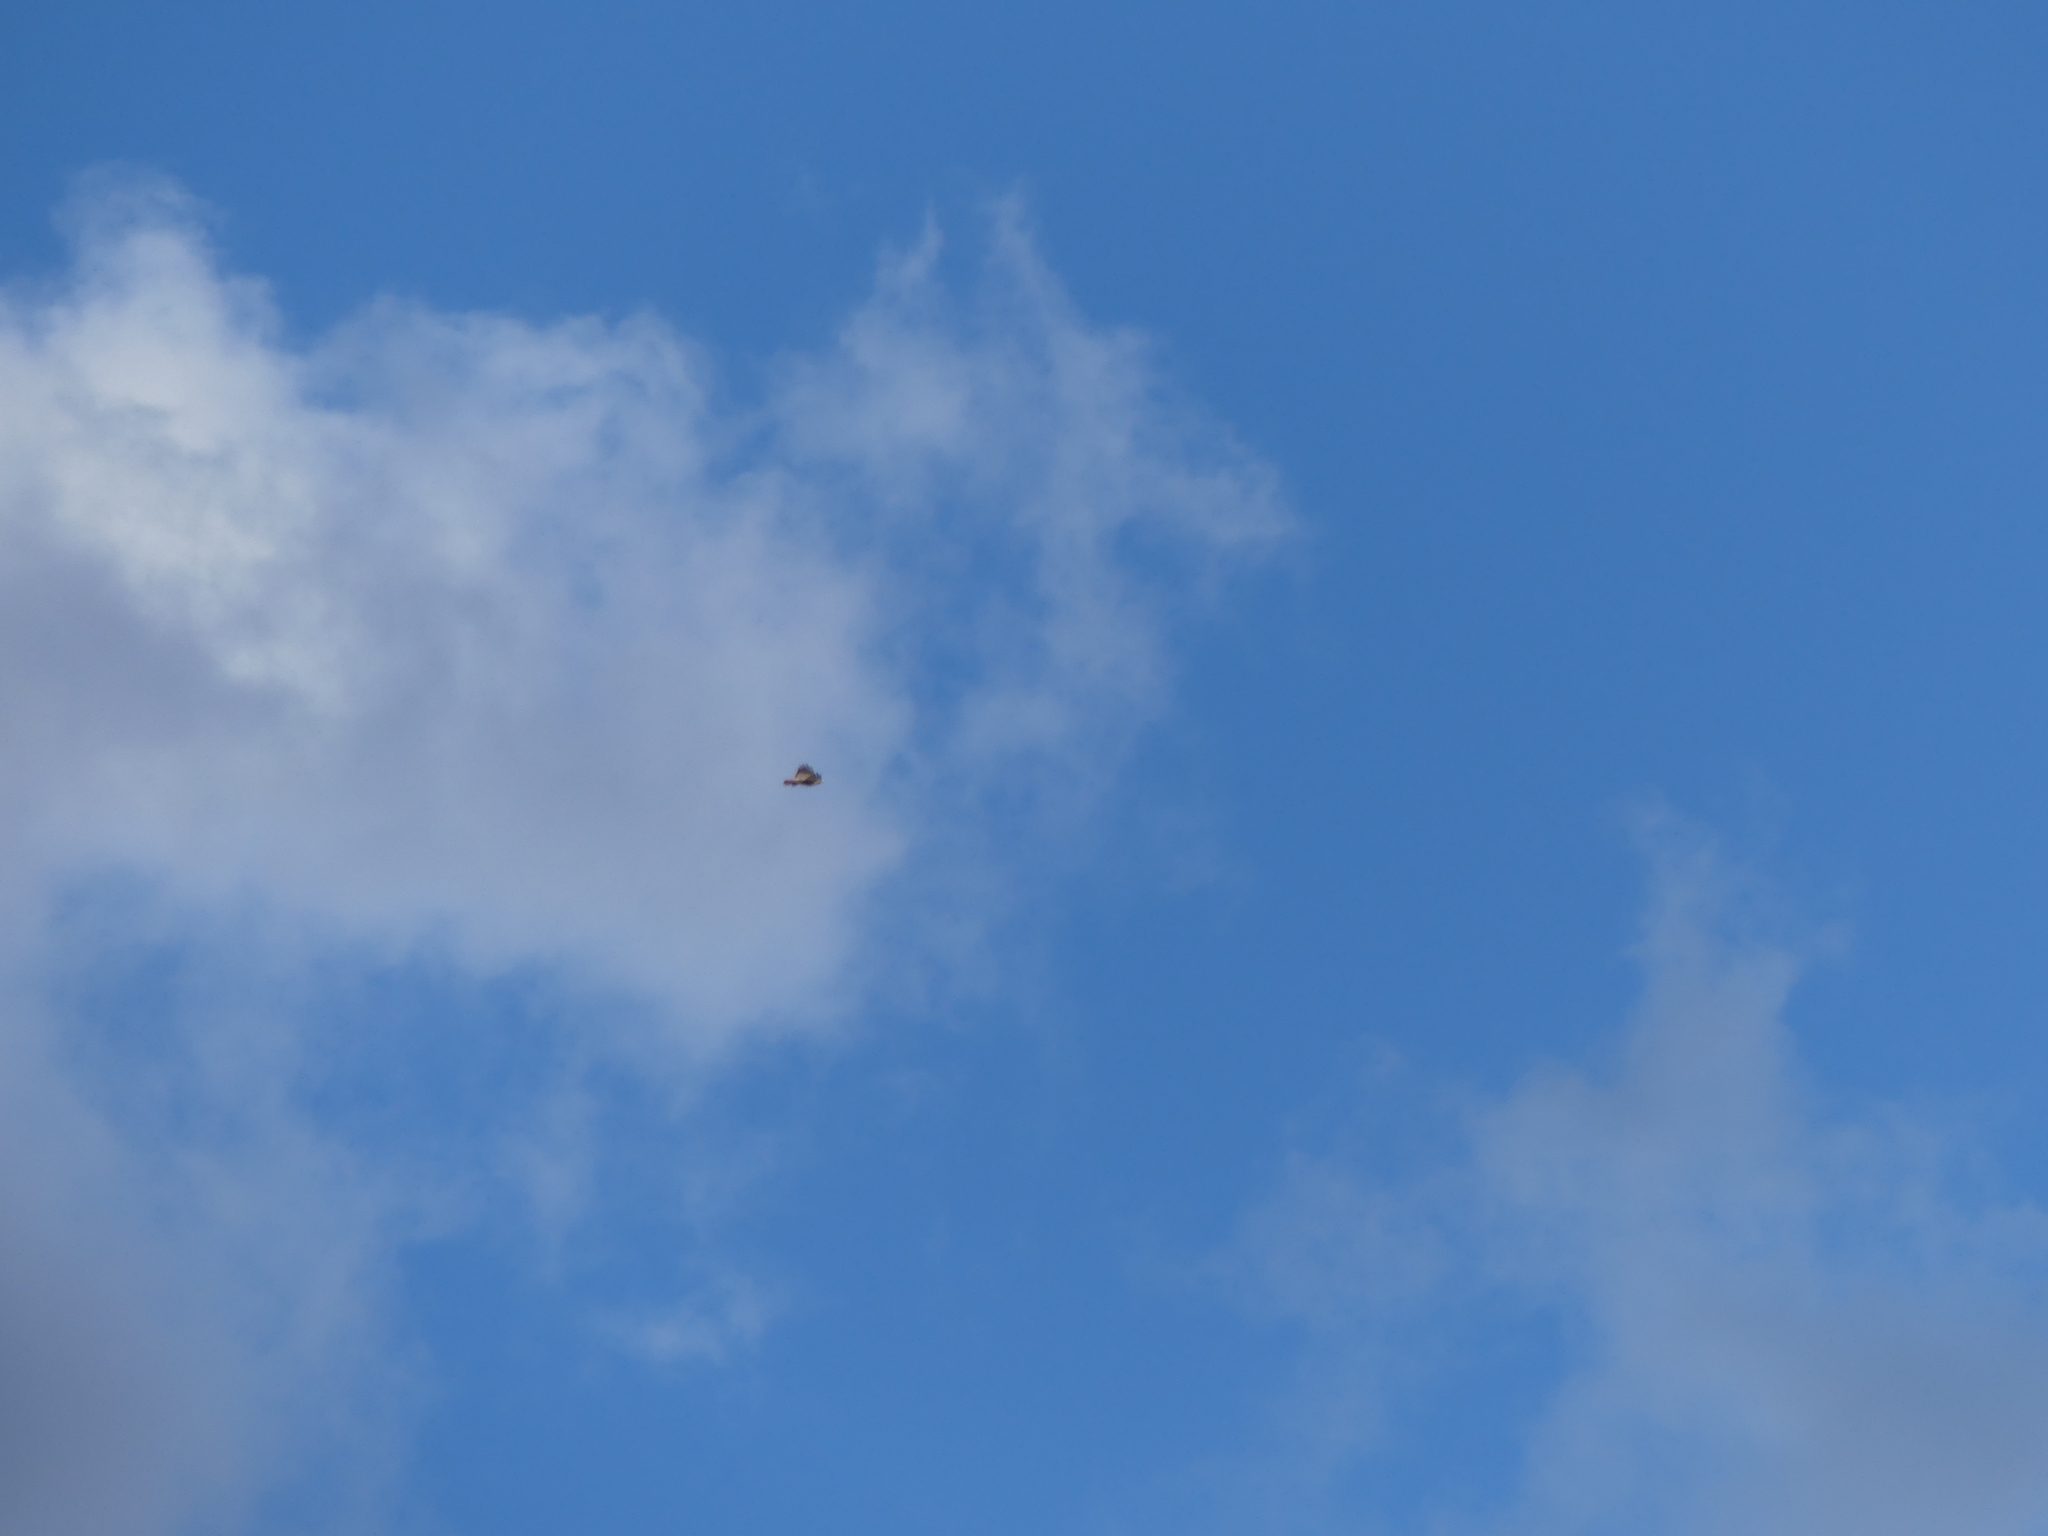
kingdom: Animalia
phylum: Chordata
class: Aves
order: Accipitriformes
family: Accipitridae
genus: Buteo
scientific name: Buteo jamaicensis
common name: Red-tailed hawk
